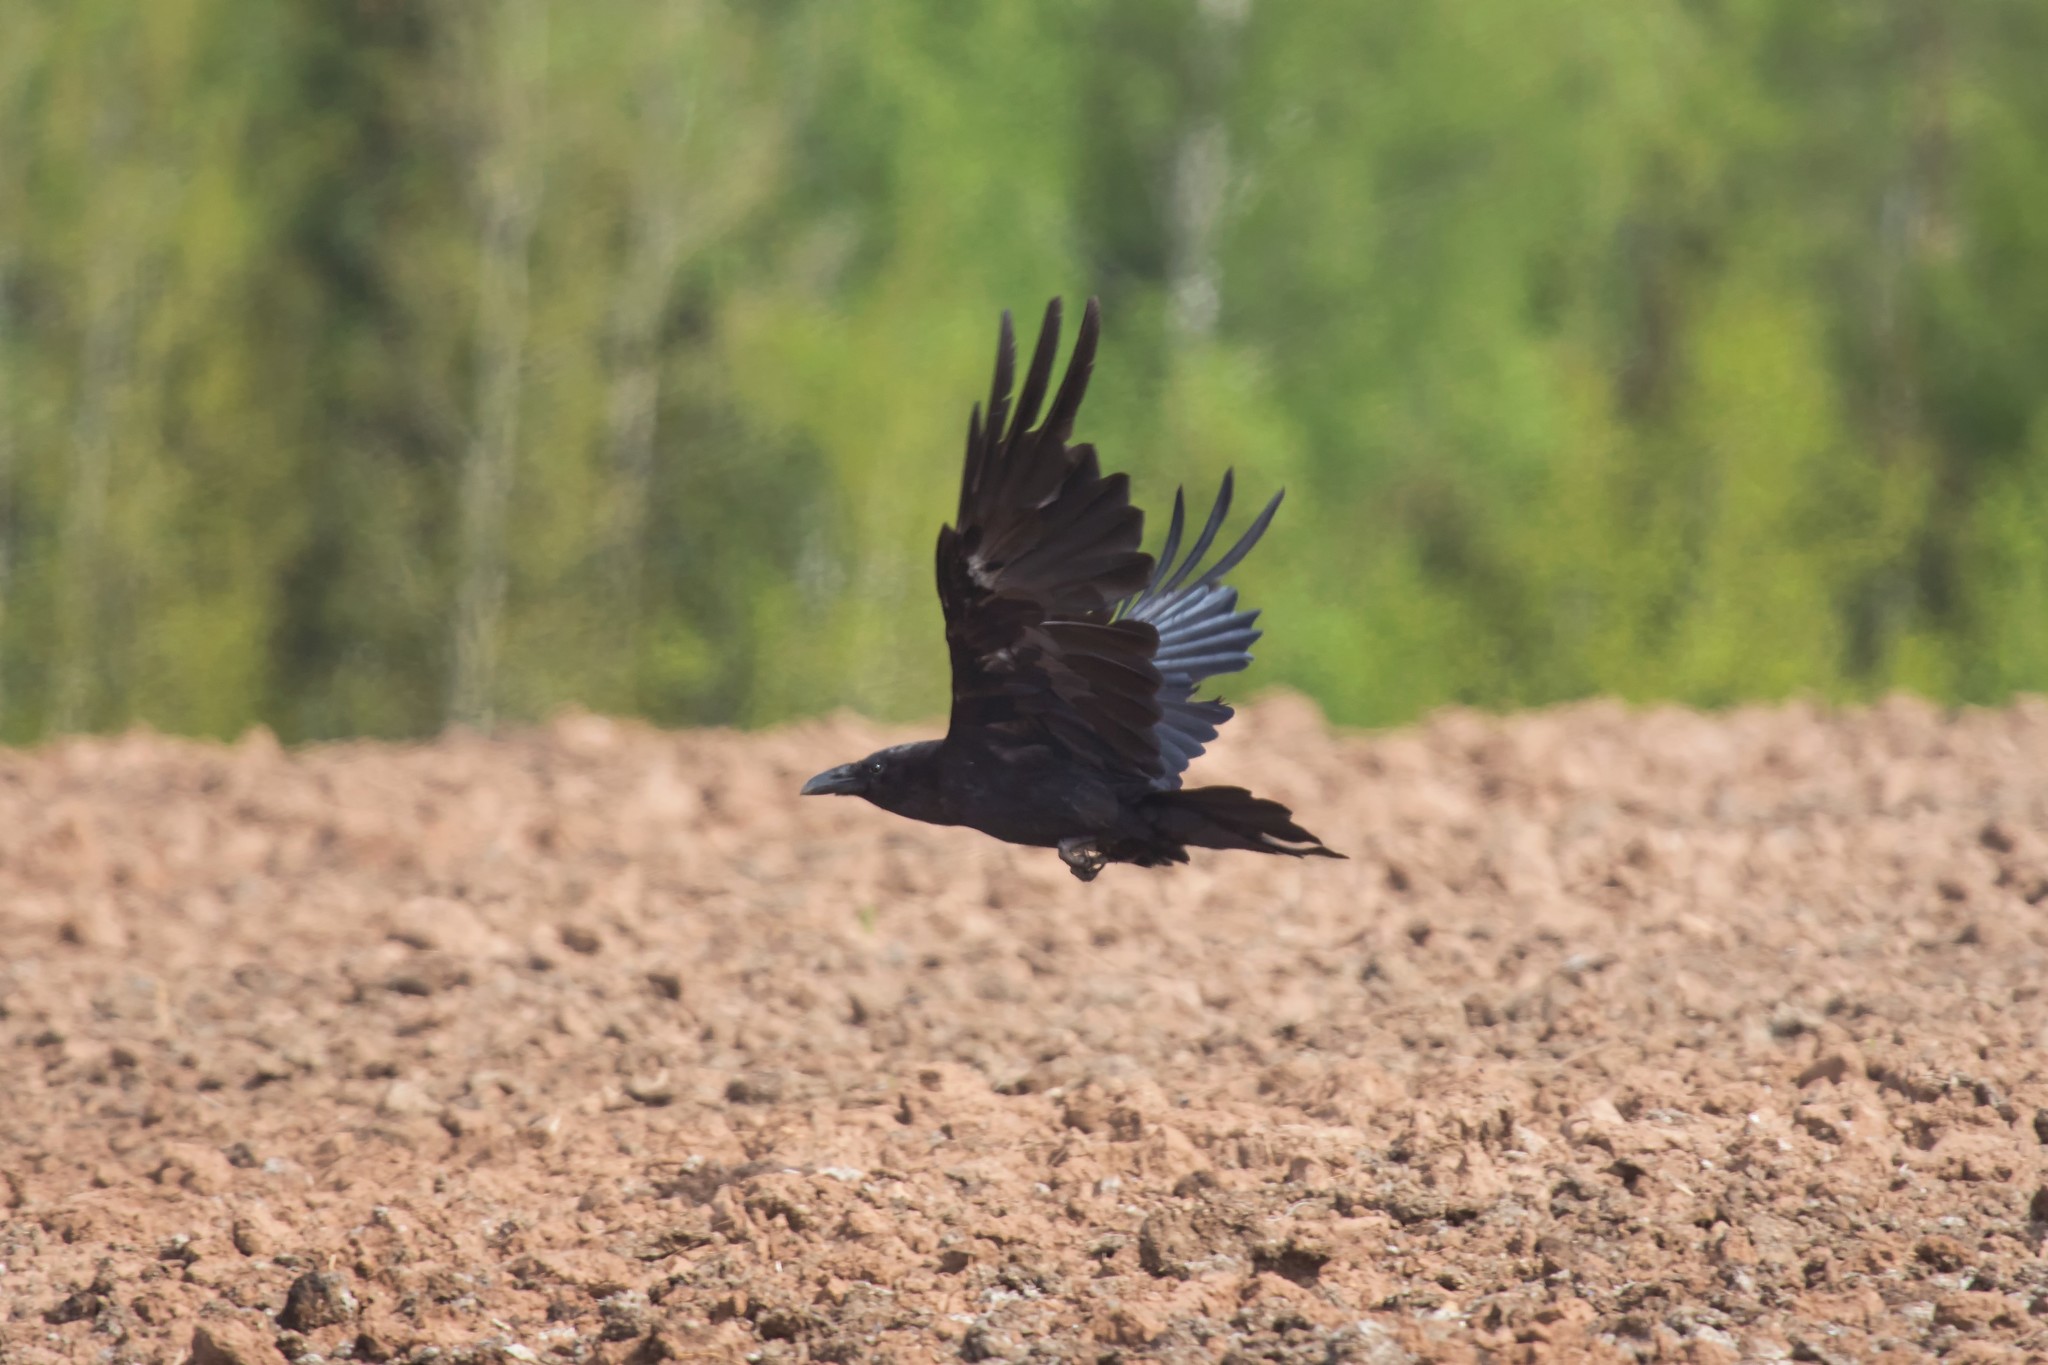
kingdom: Animalia
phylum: Chordata
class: Aves
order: Passeriformes
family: Corvidae
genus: Corvus
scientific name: Corvus corax
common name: Common raven
